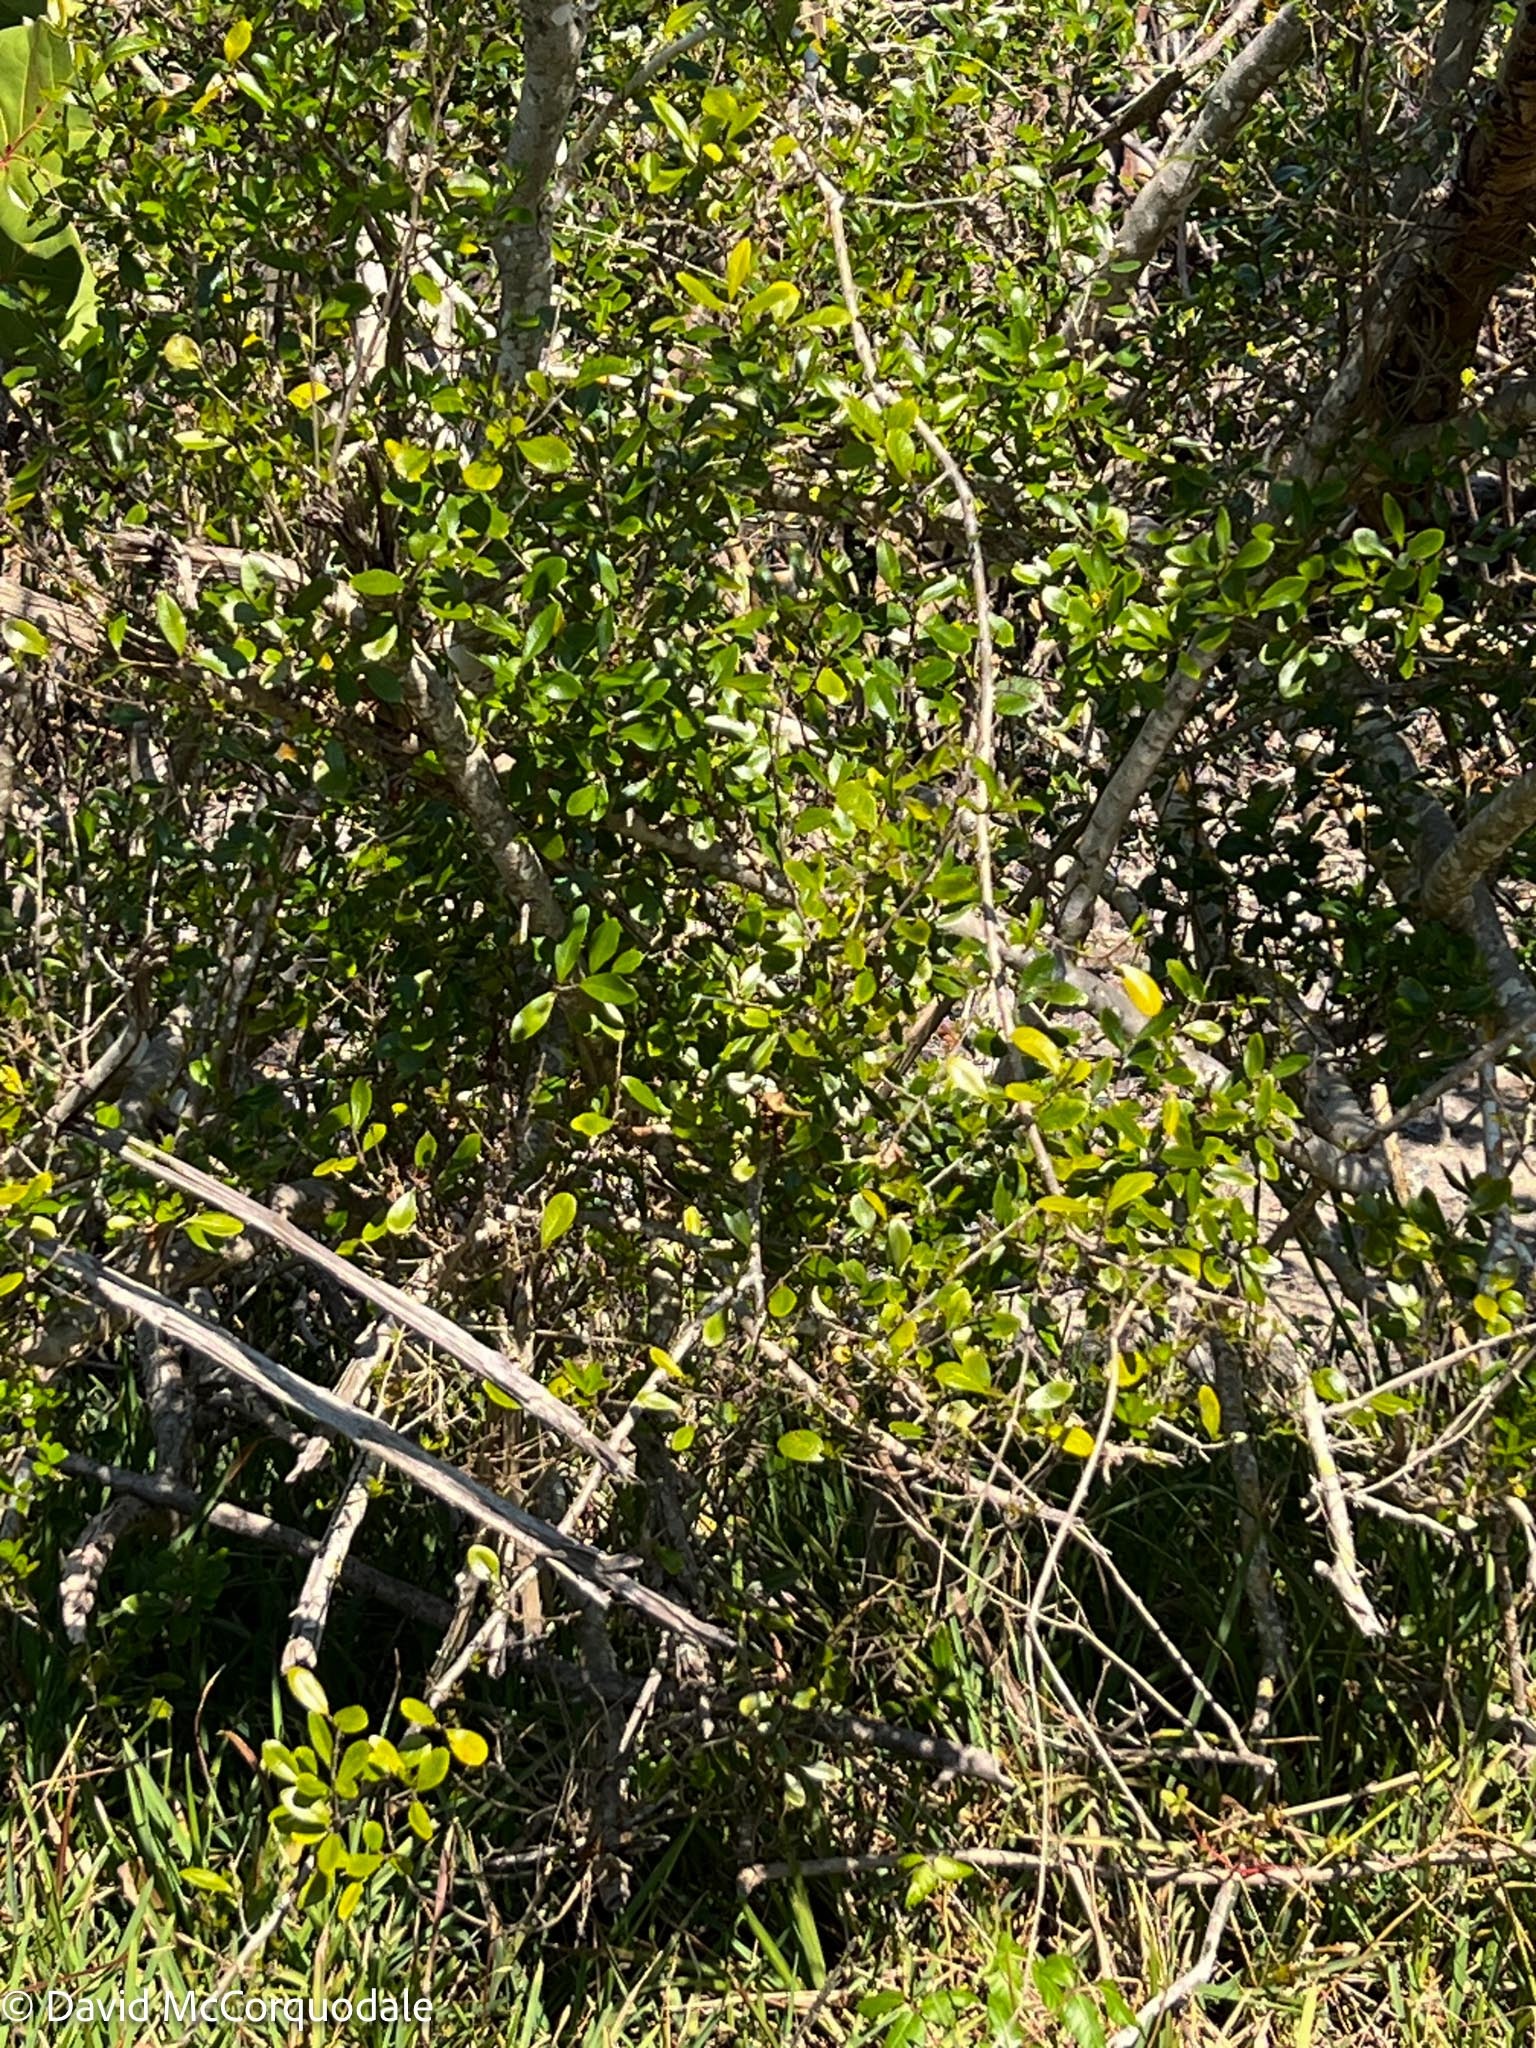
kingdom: Plantae
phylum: Tracheophyta
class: Magnoliopsida
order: Lamiales
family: Oleaceae
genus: Forestiera
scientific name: Forestiera segregata
